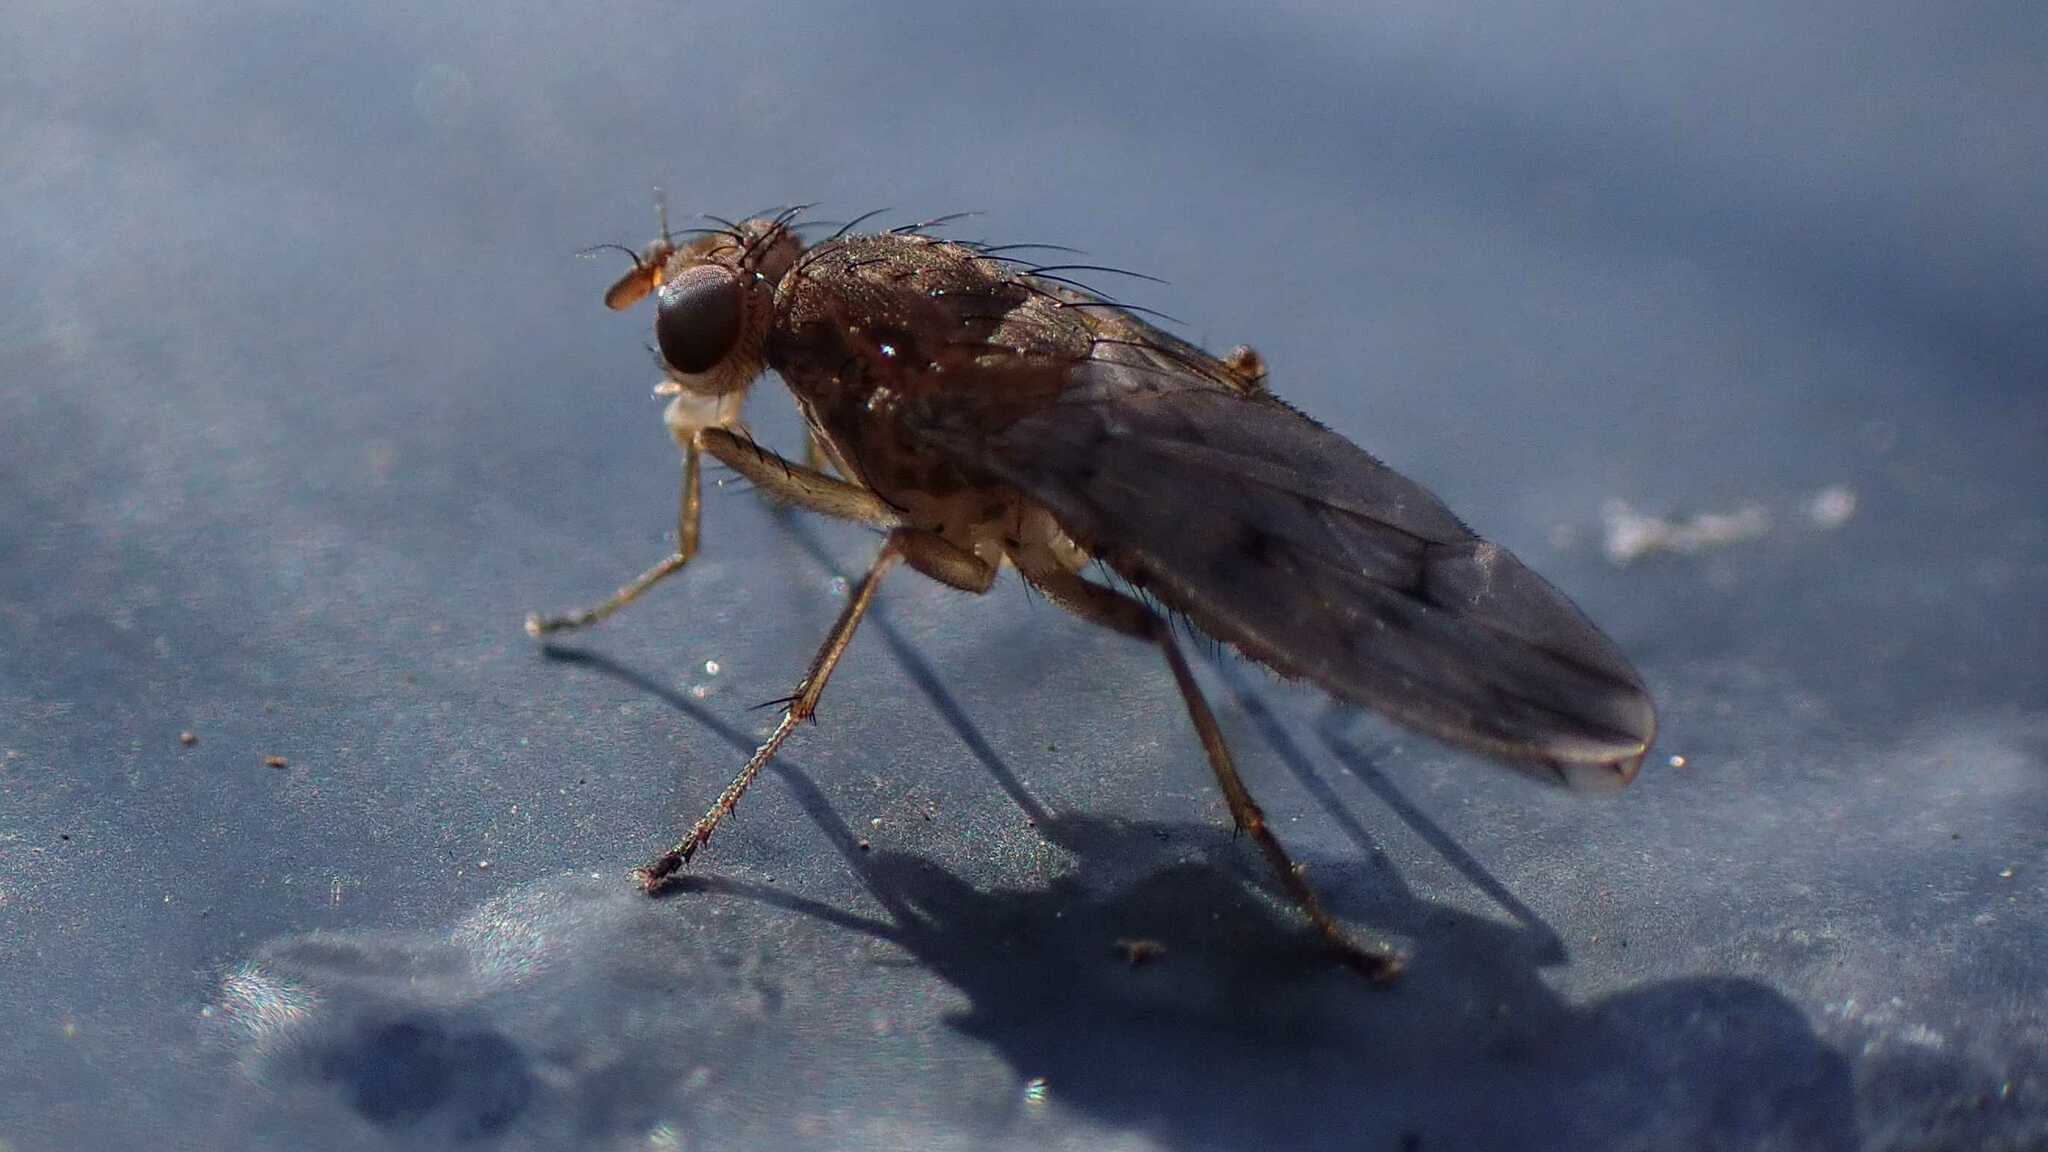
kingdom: Animalia
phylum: Arthropoda
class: Insecta
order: Diptera
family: Heleomyzidae
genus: Suillia
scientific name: Suillia variegata
